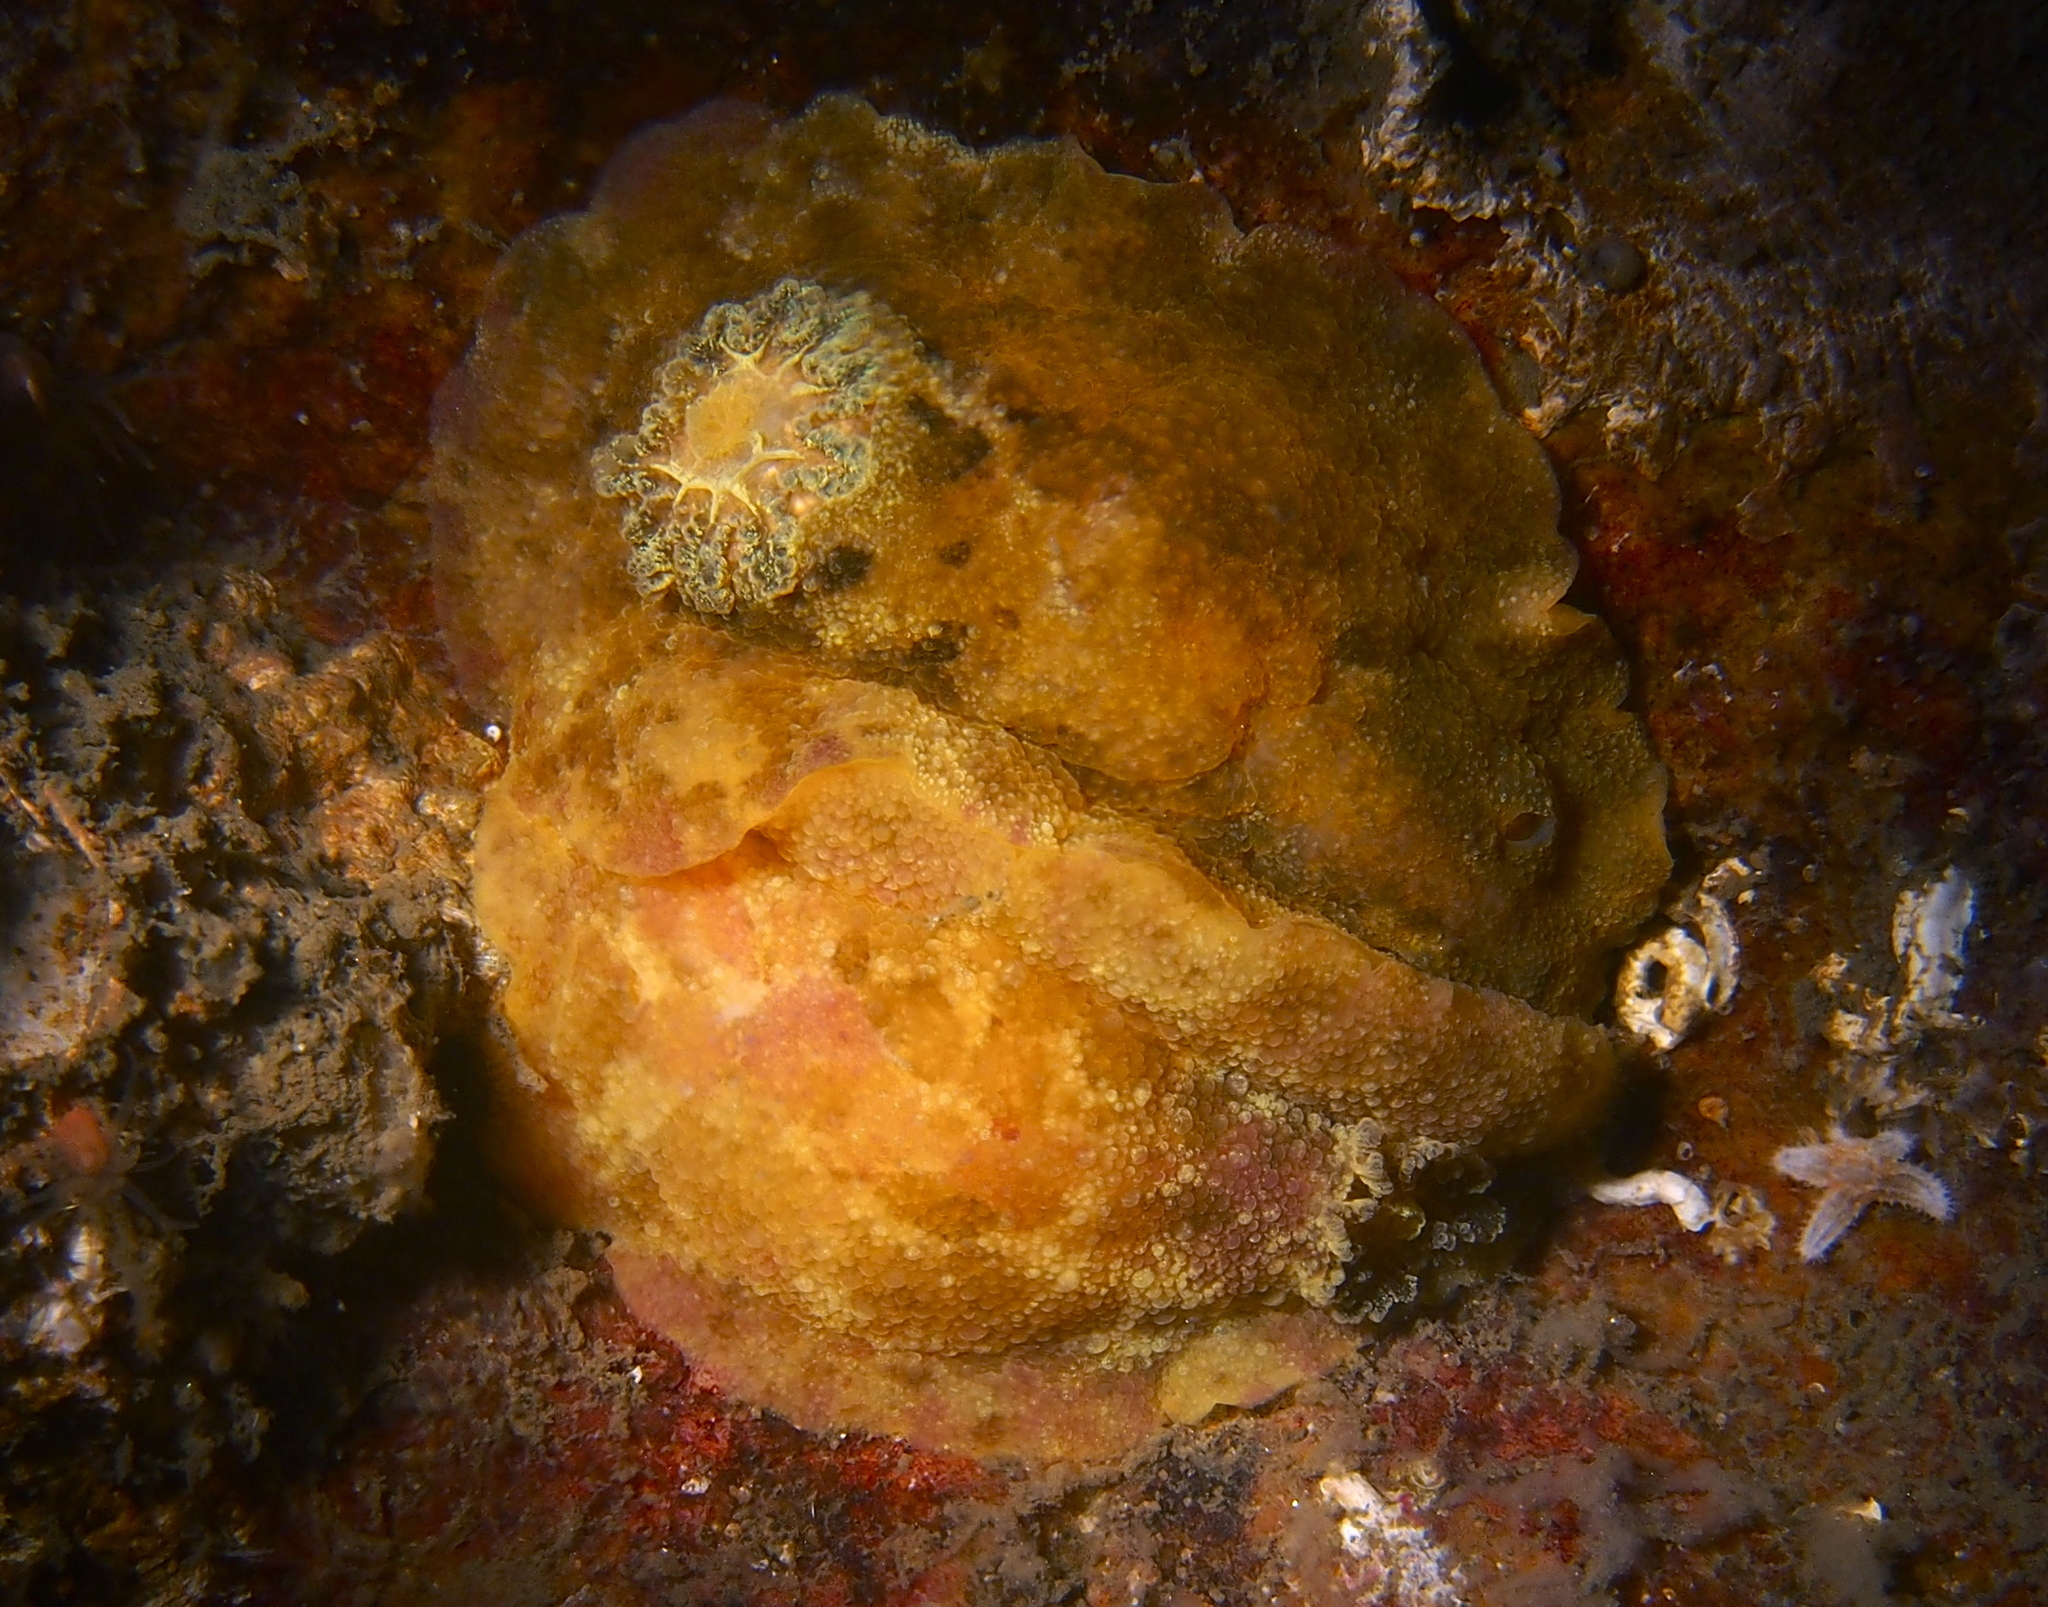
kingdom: Animalia
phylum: Mollusca
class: Gastropoda
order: Nudibranchia
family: Dorididae
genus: Doris
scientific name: Doris pseudoargus
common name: Sea lemon
